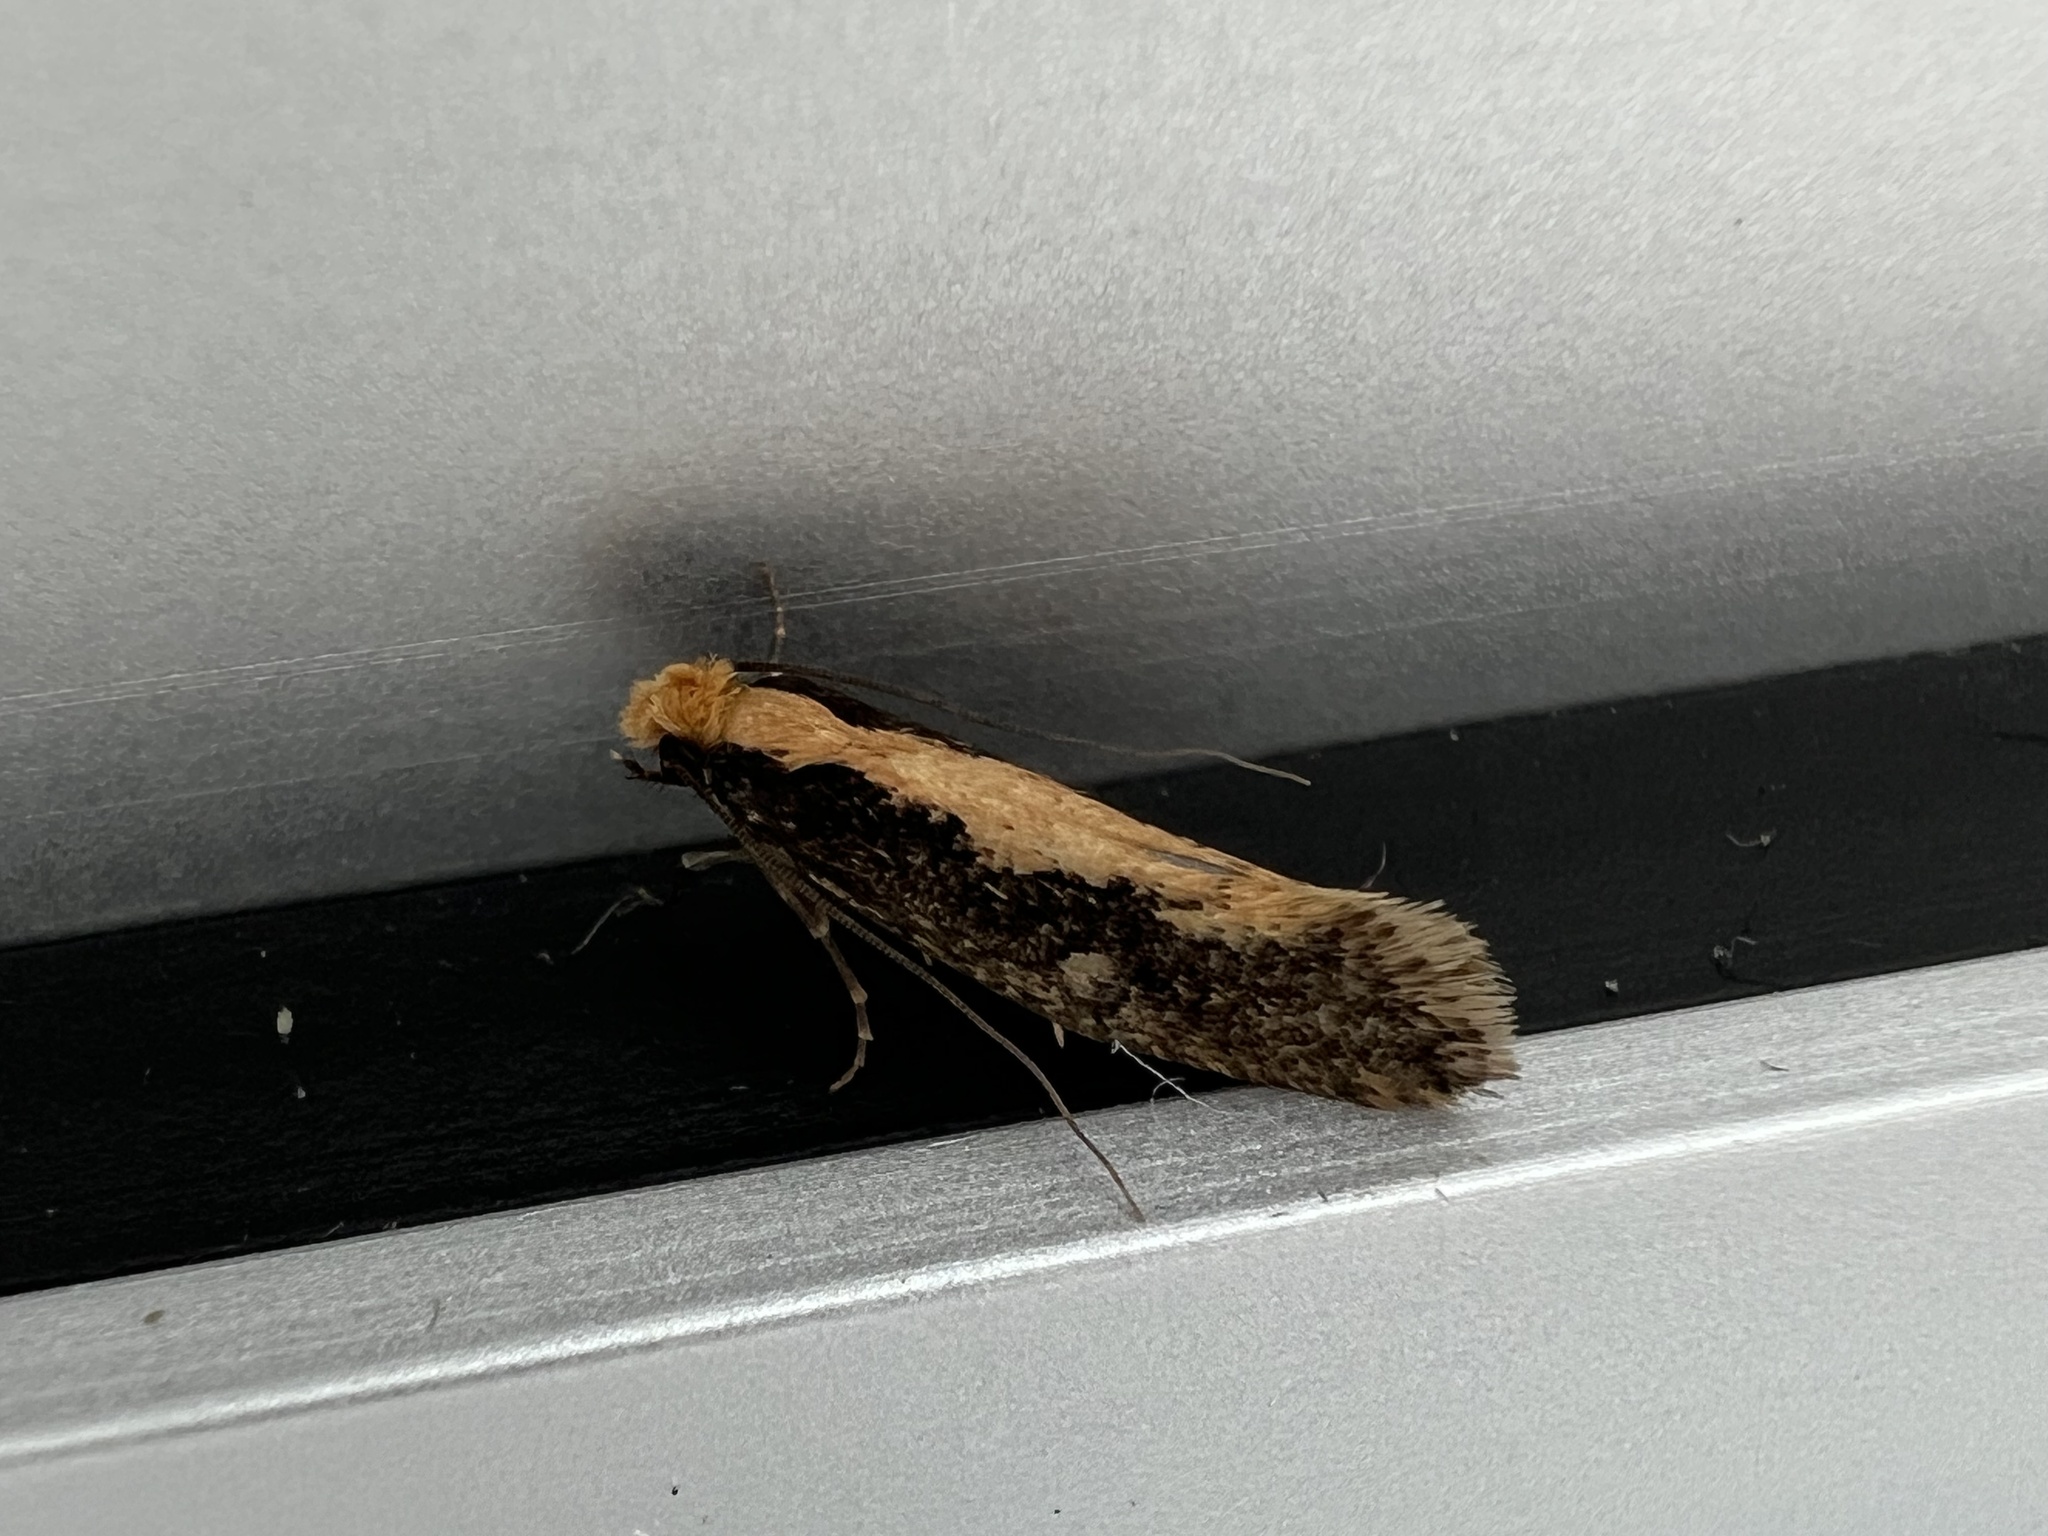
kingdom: Animalia
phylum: Arthropoda
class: Insecta
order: Lepidoptera
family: Tineidae
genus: Monopis
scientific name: Monopis crocicapitella
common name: Moth
